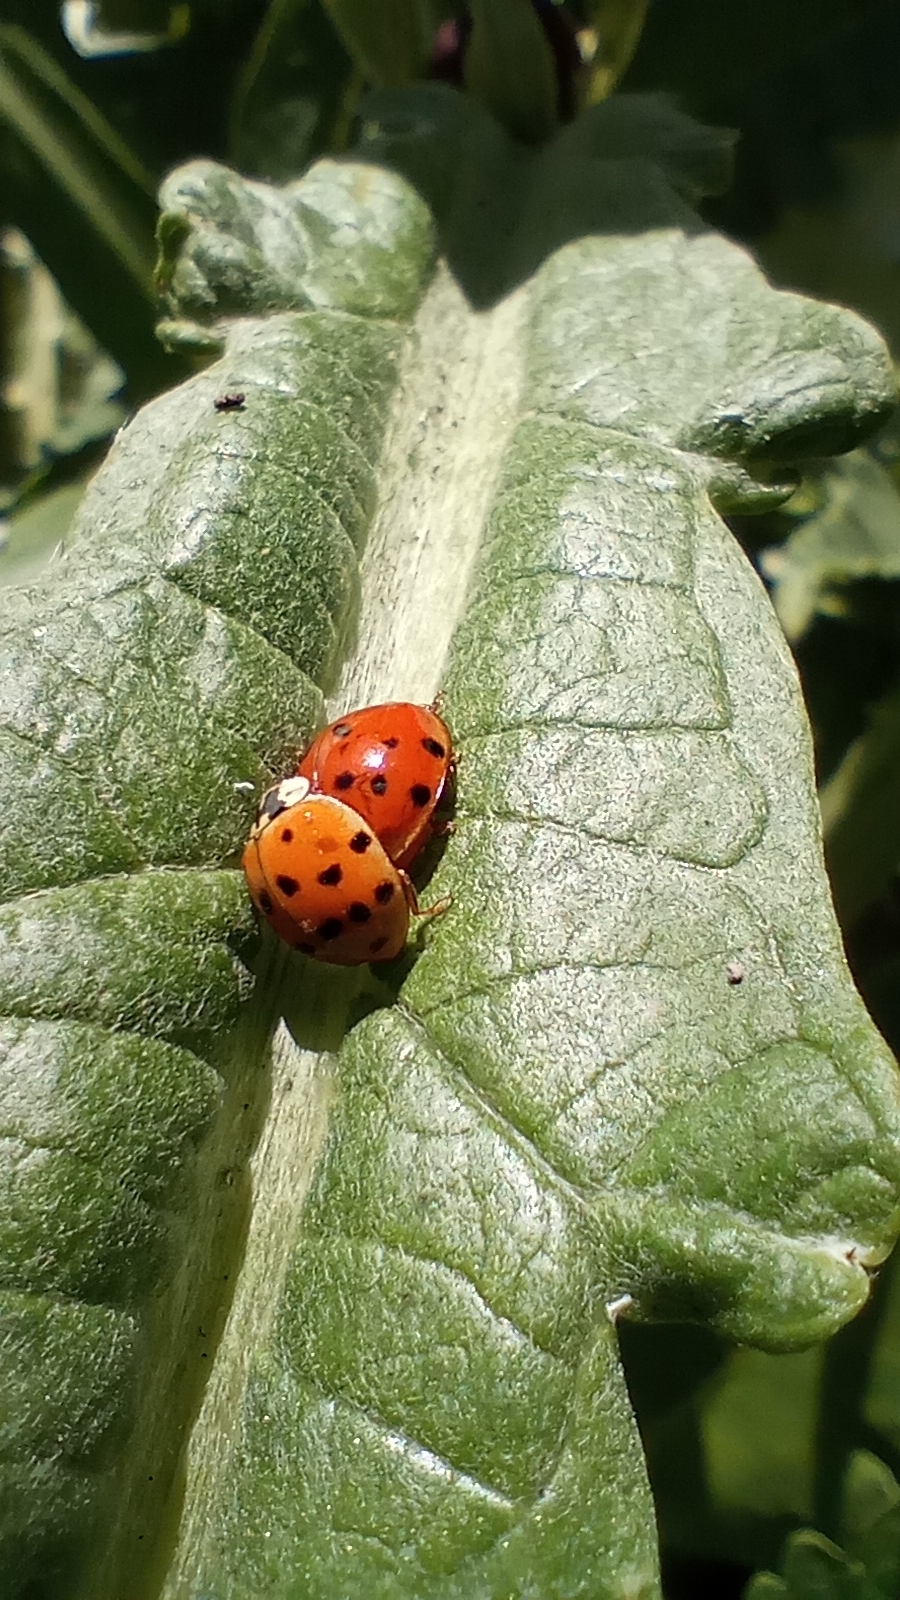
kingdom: Animalia
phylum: Arthropoda
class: Insecta
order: Coleoptera
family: Coccinellidae
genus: Harmonia
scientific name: Harmonia axyridis
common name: Harlequin ladybird
